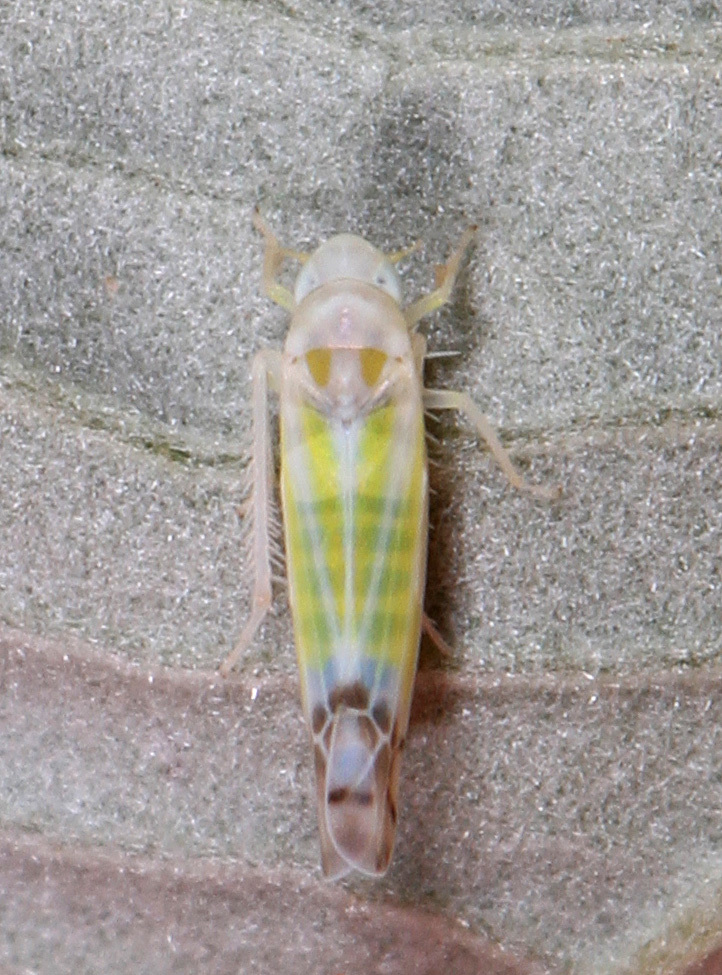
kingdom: Animalia
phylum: Arthropoda
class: Insecta
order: Hemiptera
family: Cicadellidae
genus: Ribautiana
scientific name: Ribautiana tenerrima
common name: Bramble leafhopper
